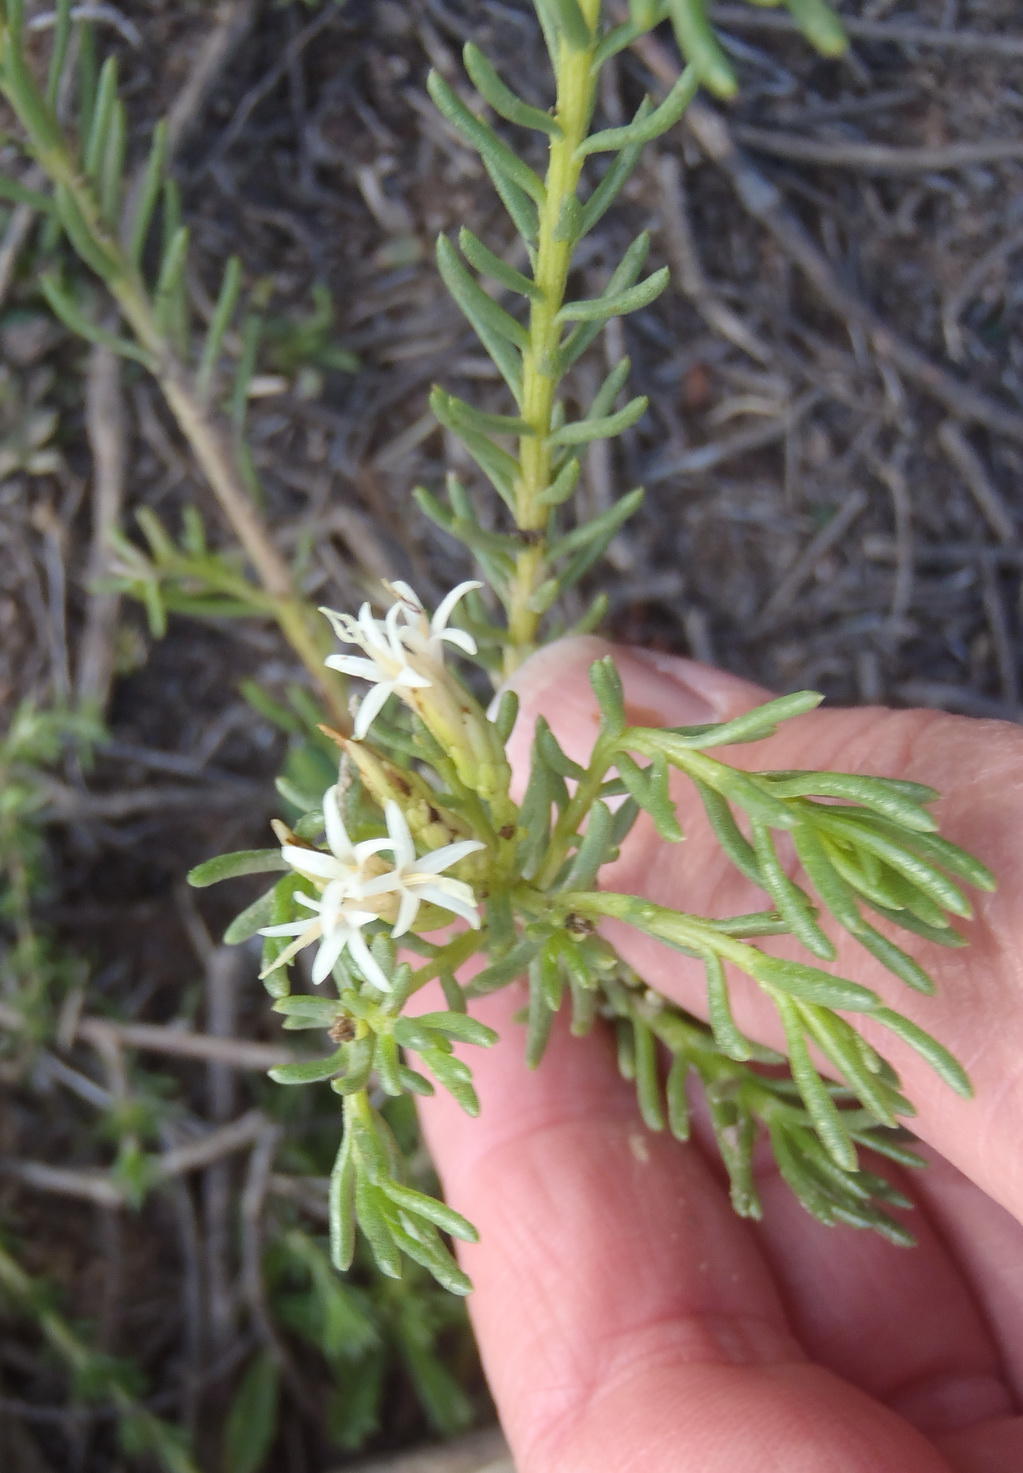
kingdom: Plantae
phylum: Tracheophyta
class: Magnoliopsida
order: Asterales
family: Asteraceae
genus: Pteronia
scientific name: Pteronia teretifolia
